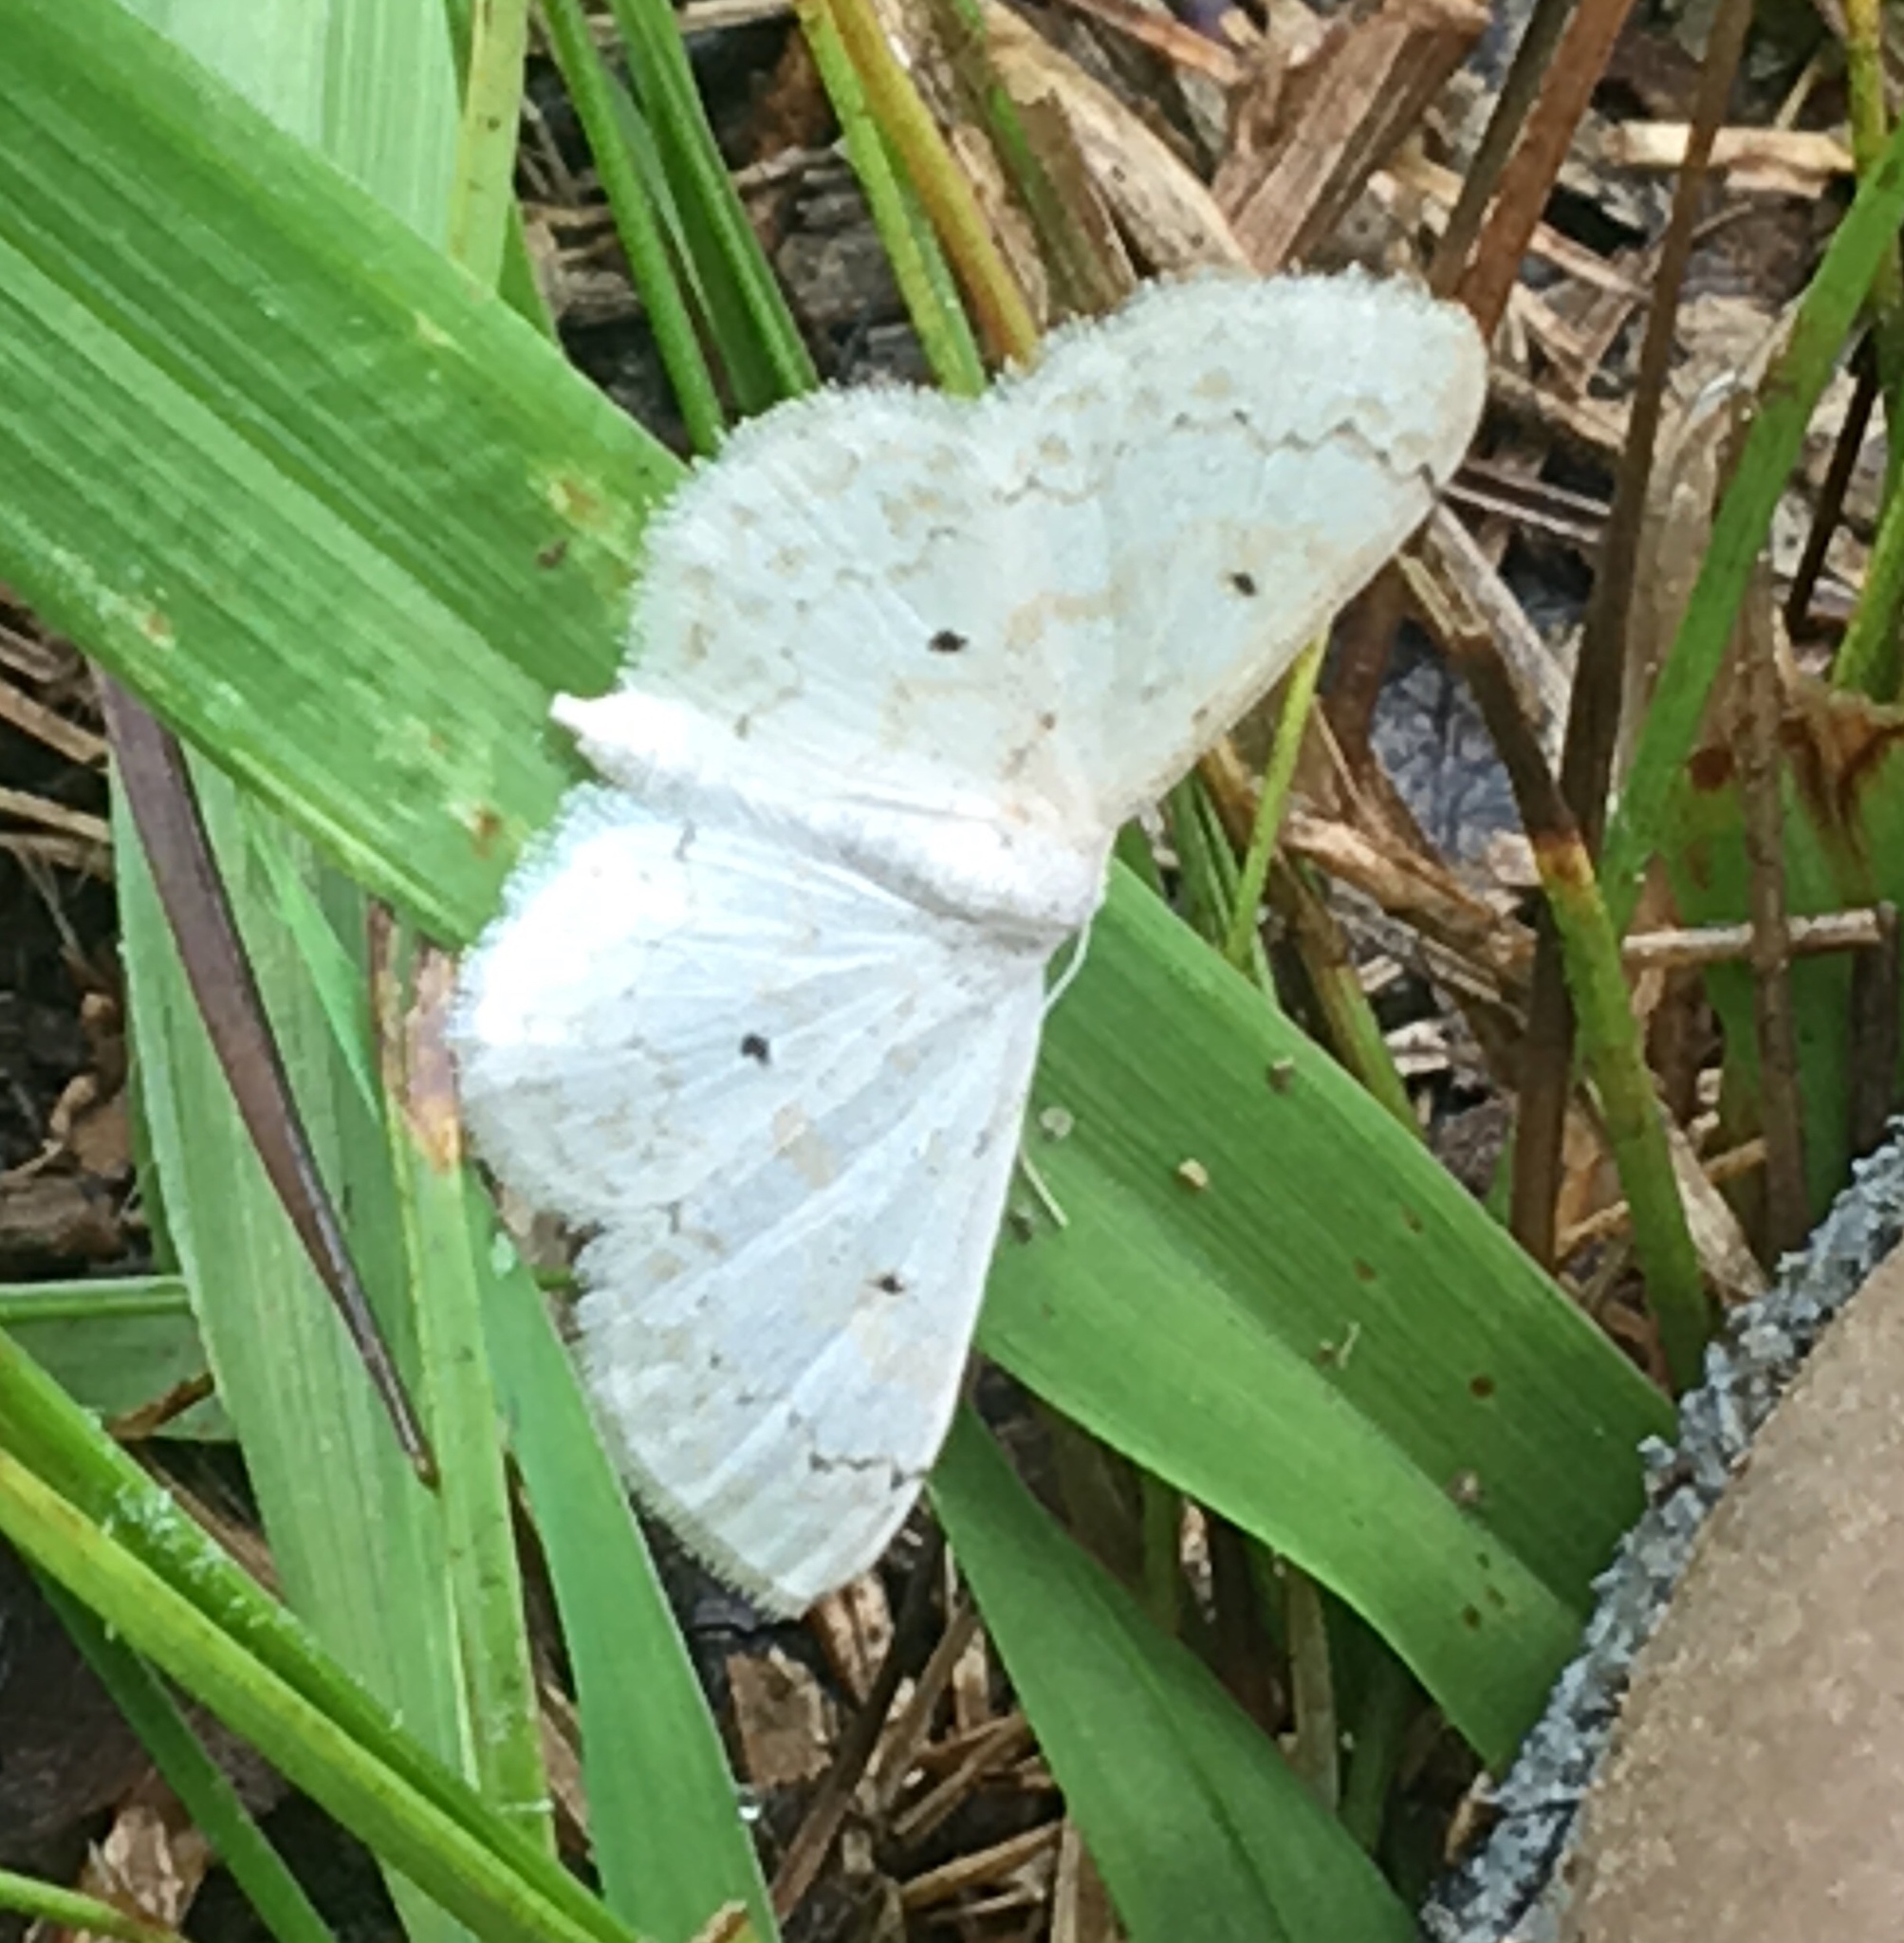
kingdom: Animalia
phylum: Arthropoda
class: Insecta
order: Lepidoptera
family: Geometridae
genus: Idaea
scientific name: Idaea obfusaria
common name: Rippled wave
